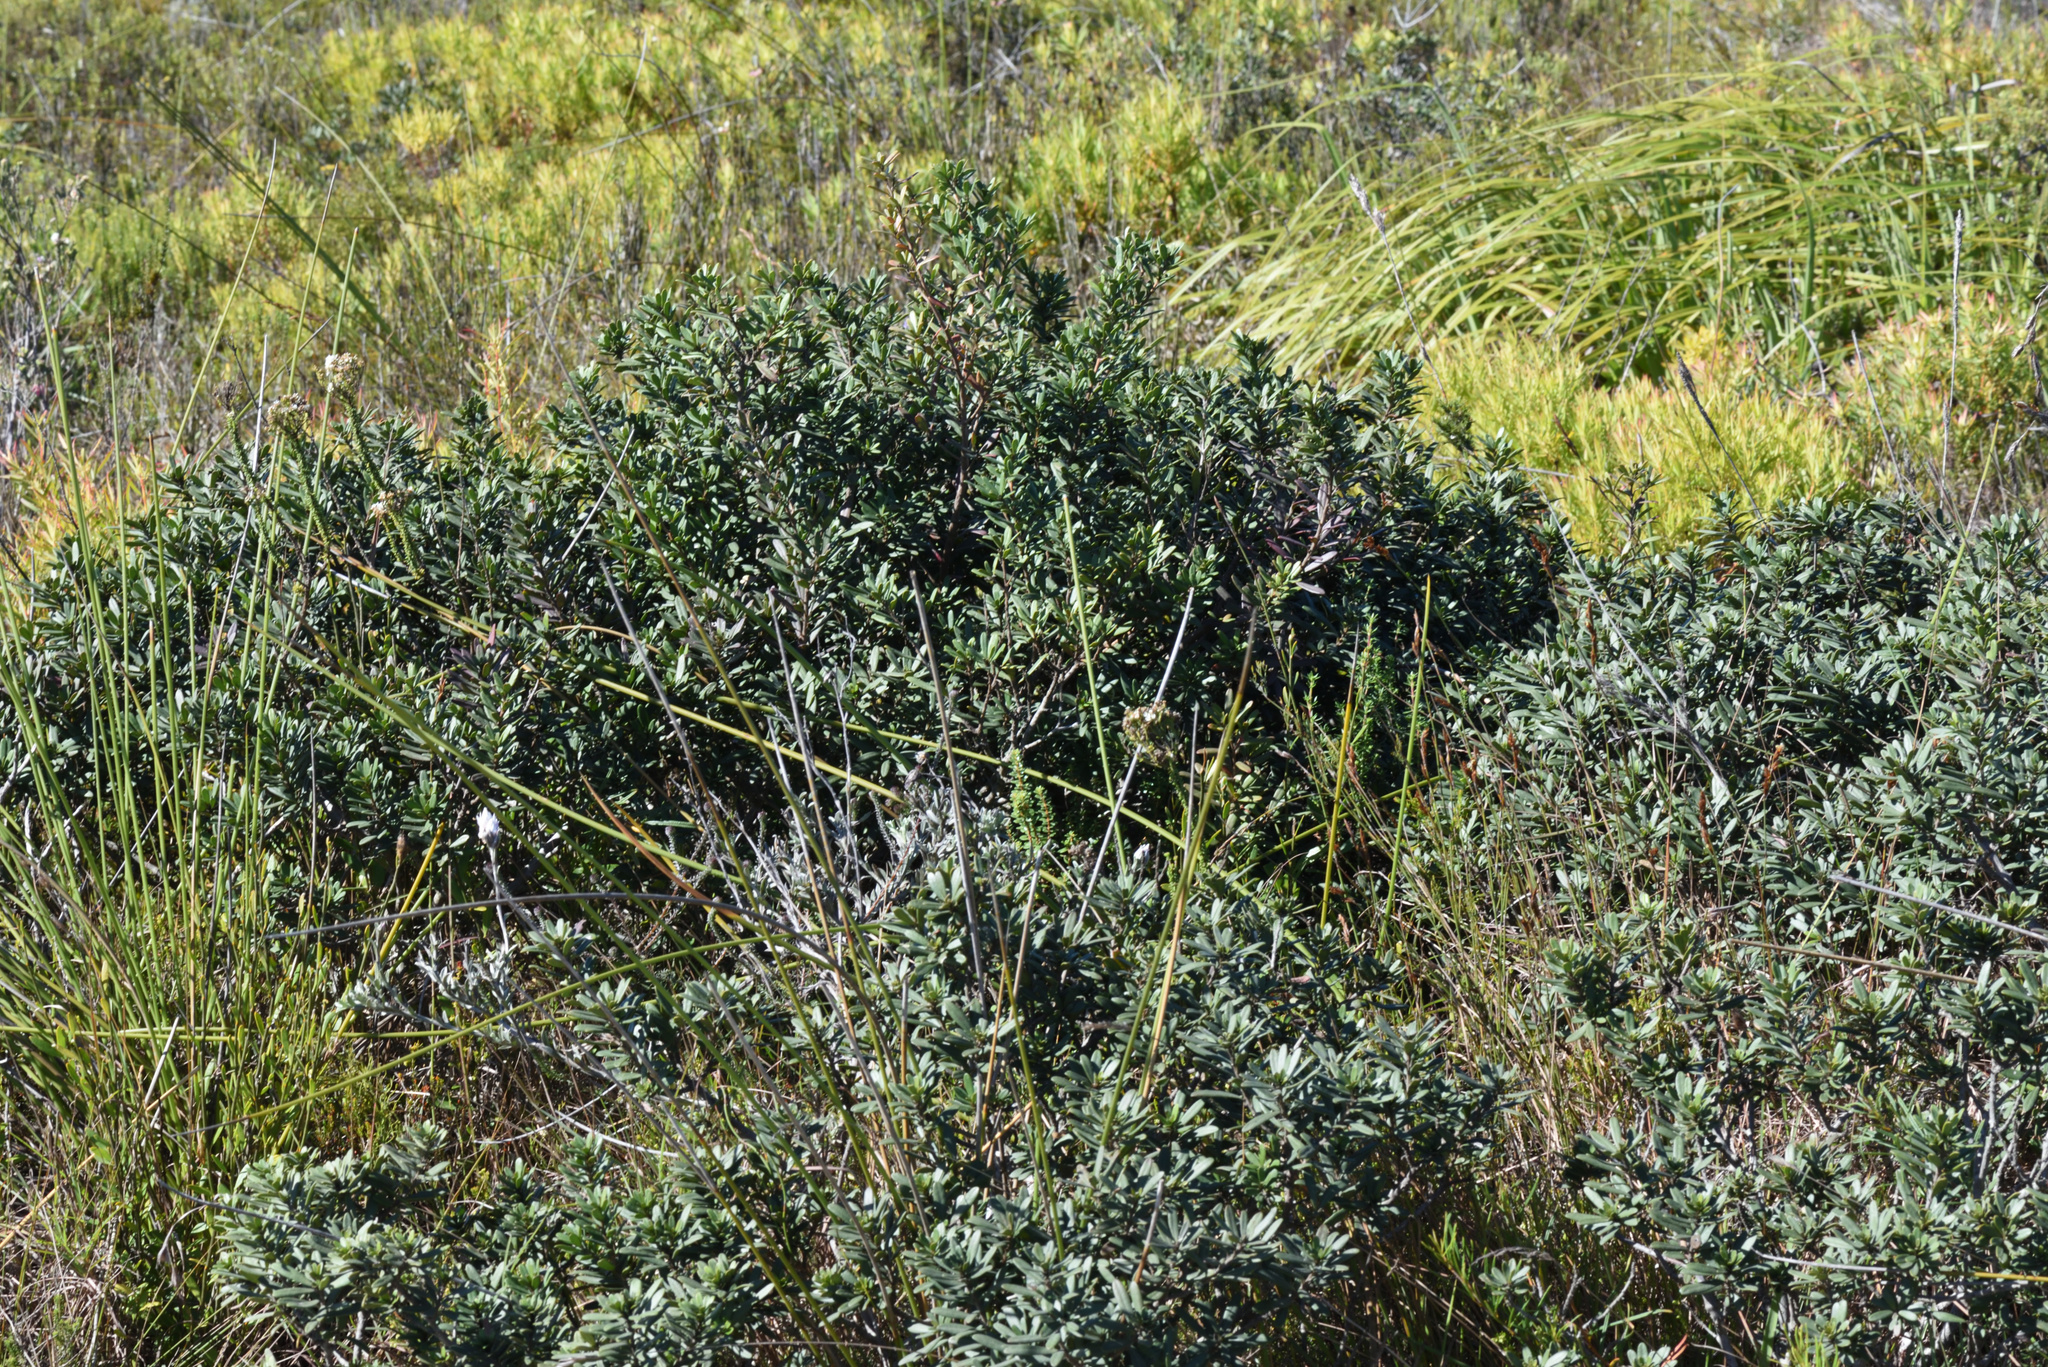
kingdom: Plantae
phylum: Tracheophyta
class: Magnoliopsida
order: Ericales
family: Ebenaceae
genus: Diospyros
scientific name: Diospyros dichrophylla
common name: Common star-apple
